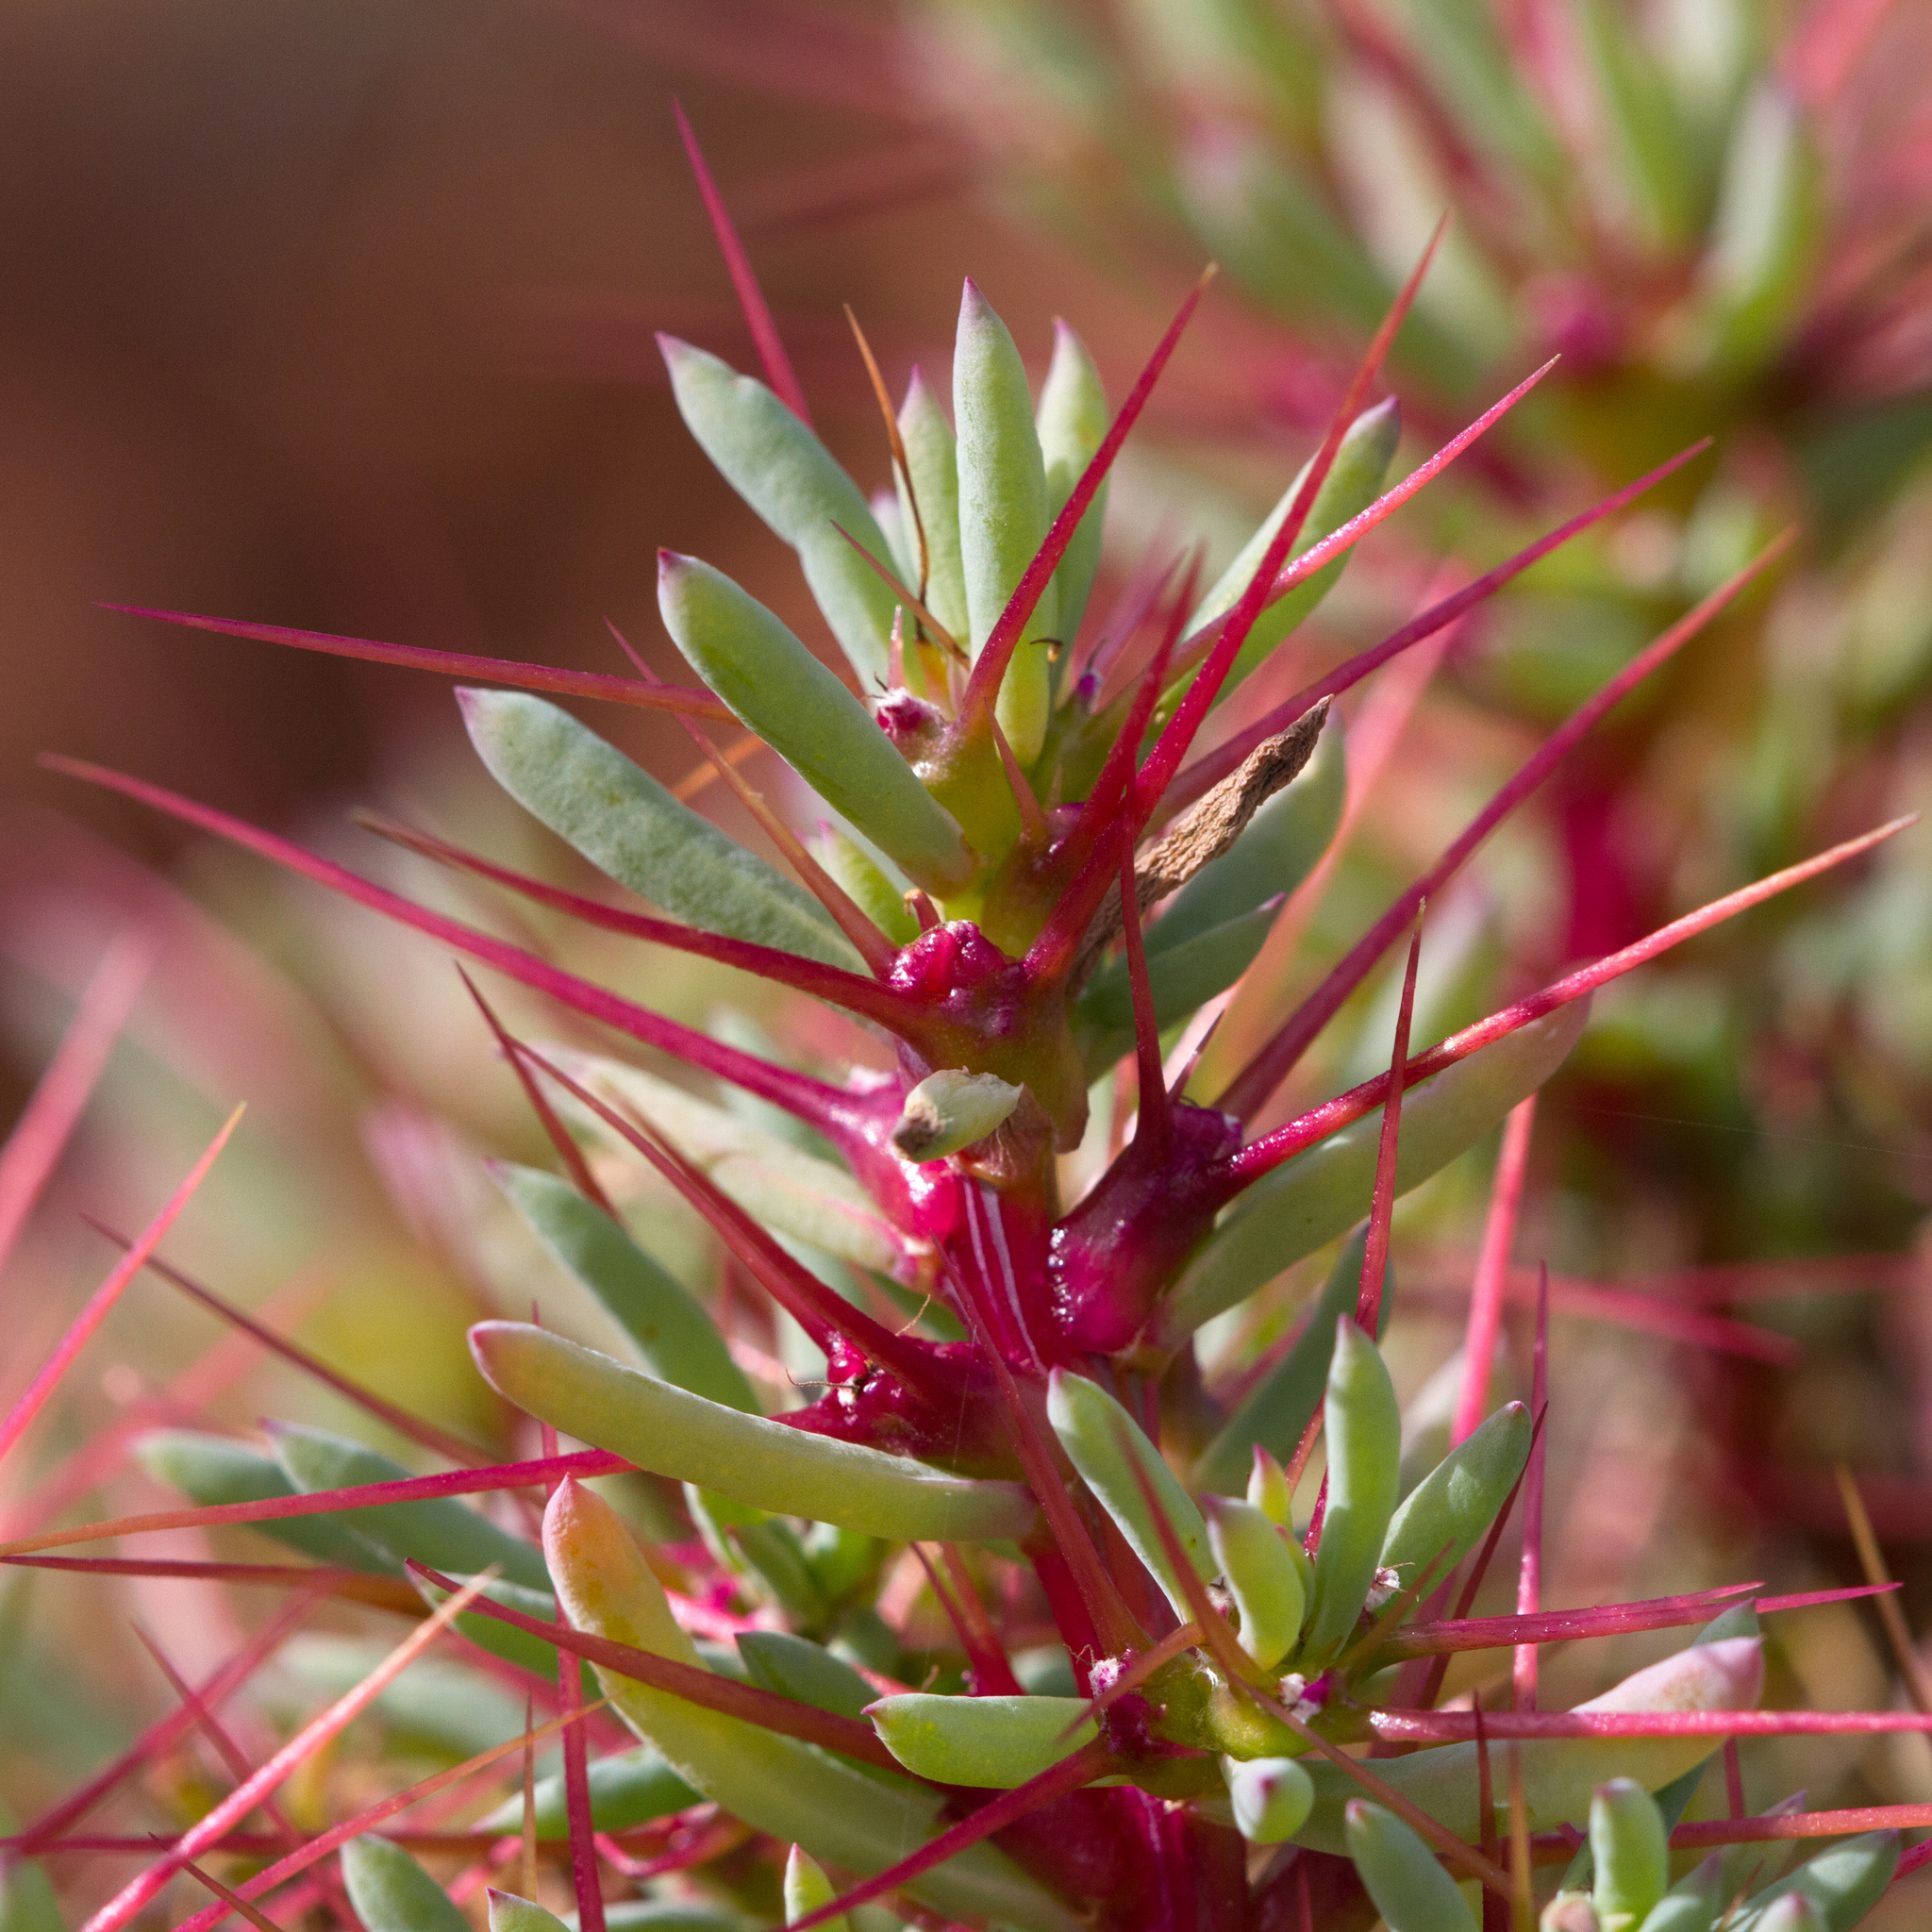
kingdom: Plantae
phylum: Tracheophyta
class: Magnoliopsida
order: Caryophyllales
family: Amaranthaceae
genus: Sclerolaena
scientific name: Sclerolaena longicuspis
